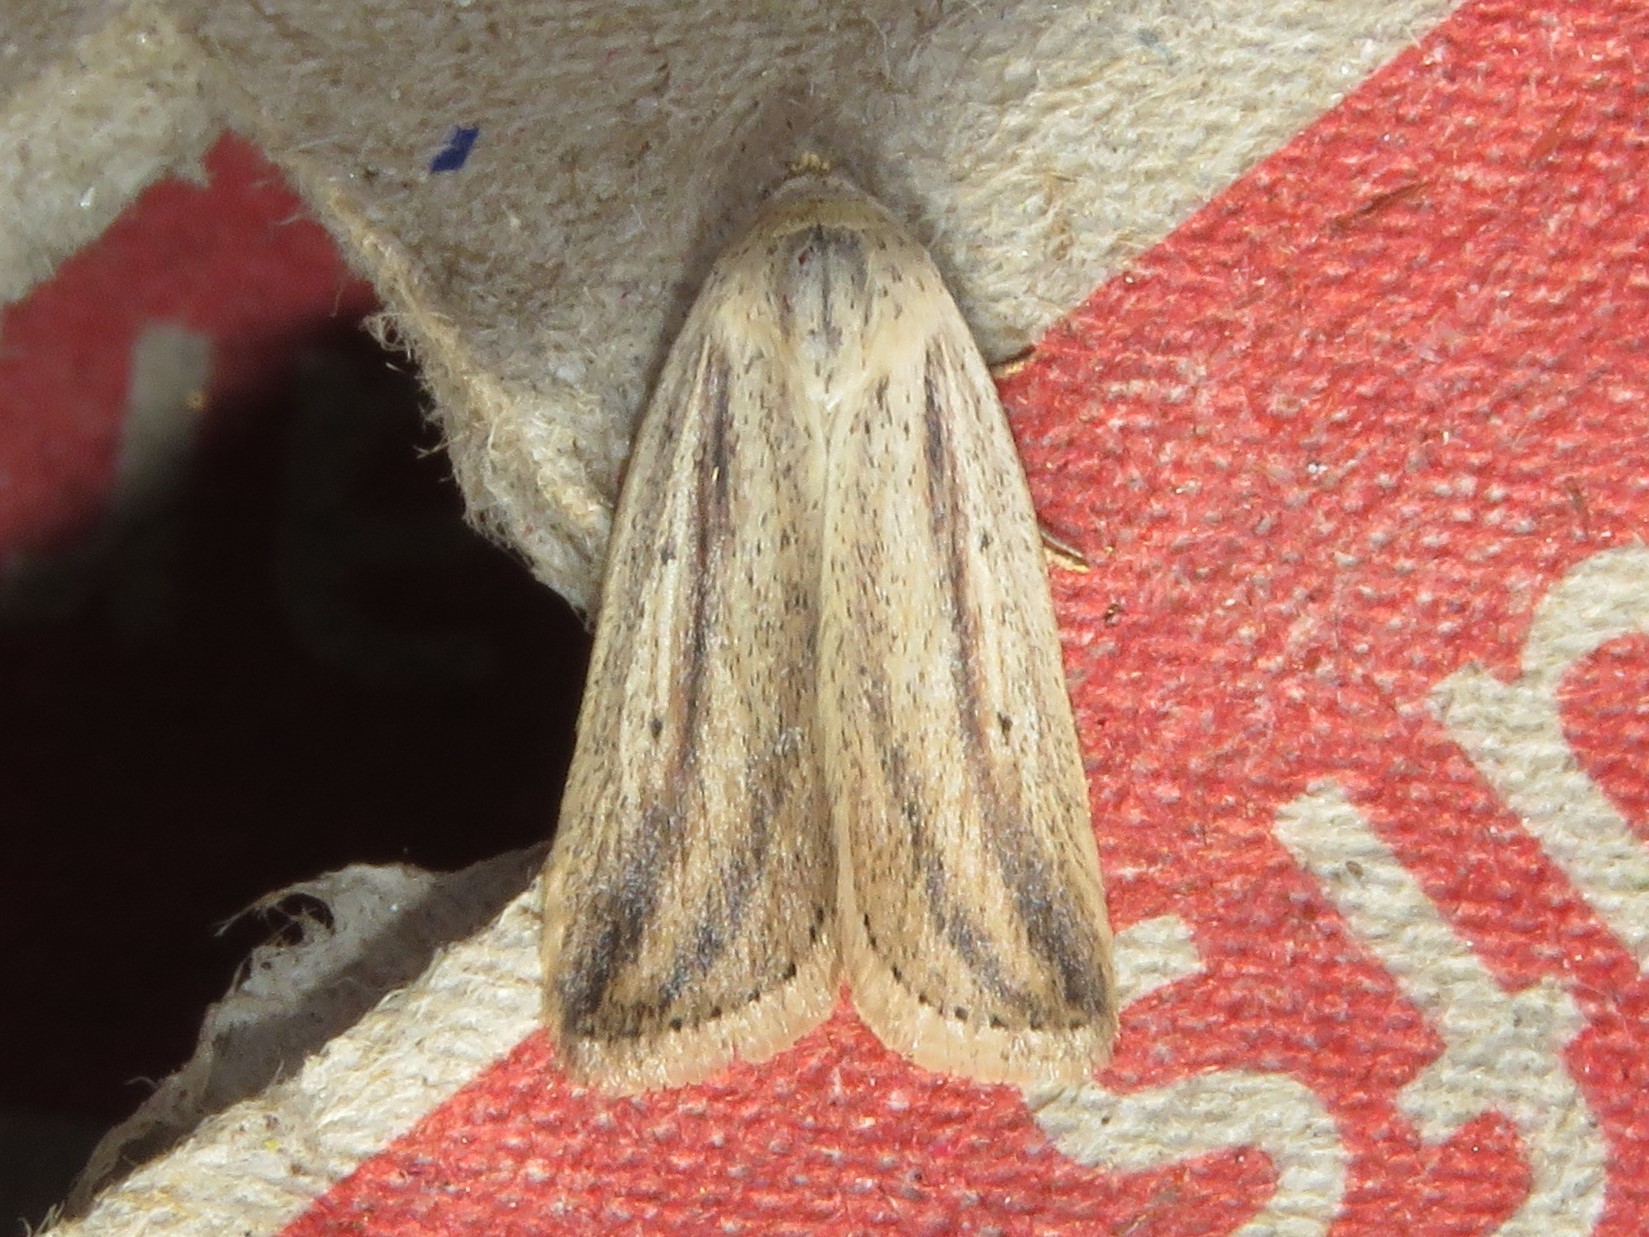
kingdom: Animalia
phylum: Arthropoda
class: Insecta
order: Lepidoptera
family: Noctuidae
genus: Amolita
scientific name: Amolita fessa
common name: Feeble grass moth
